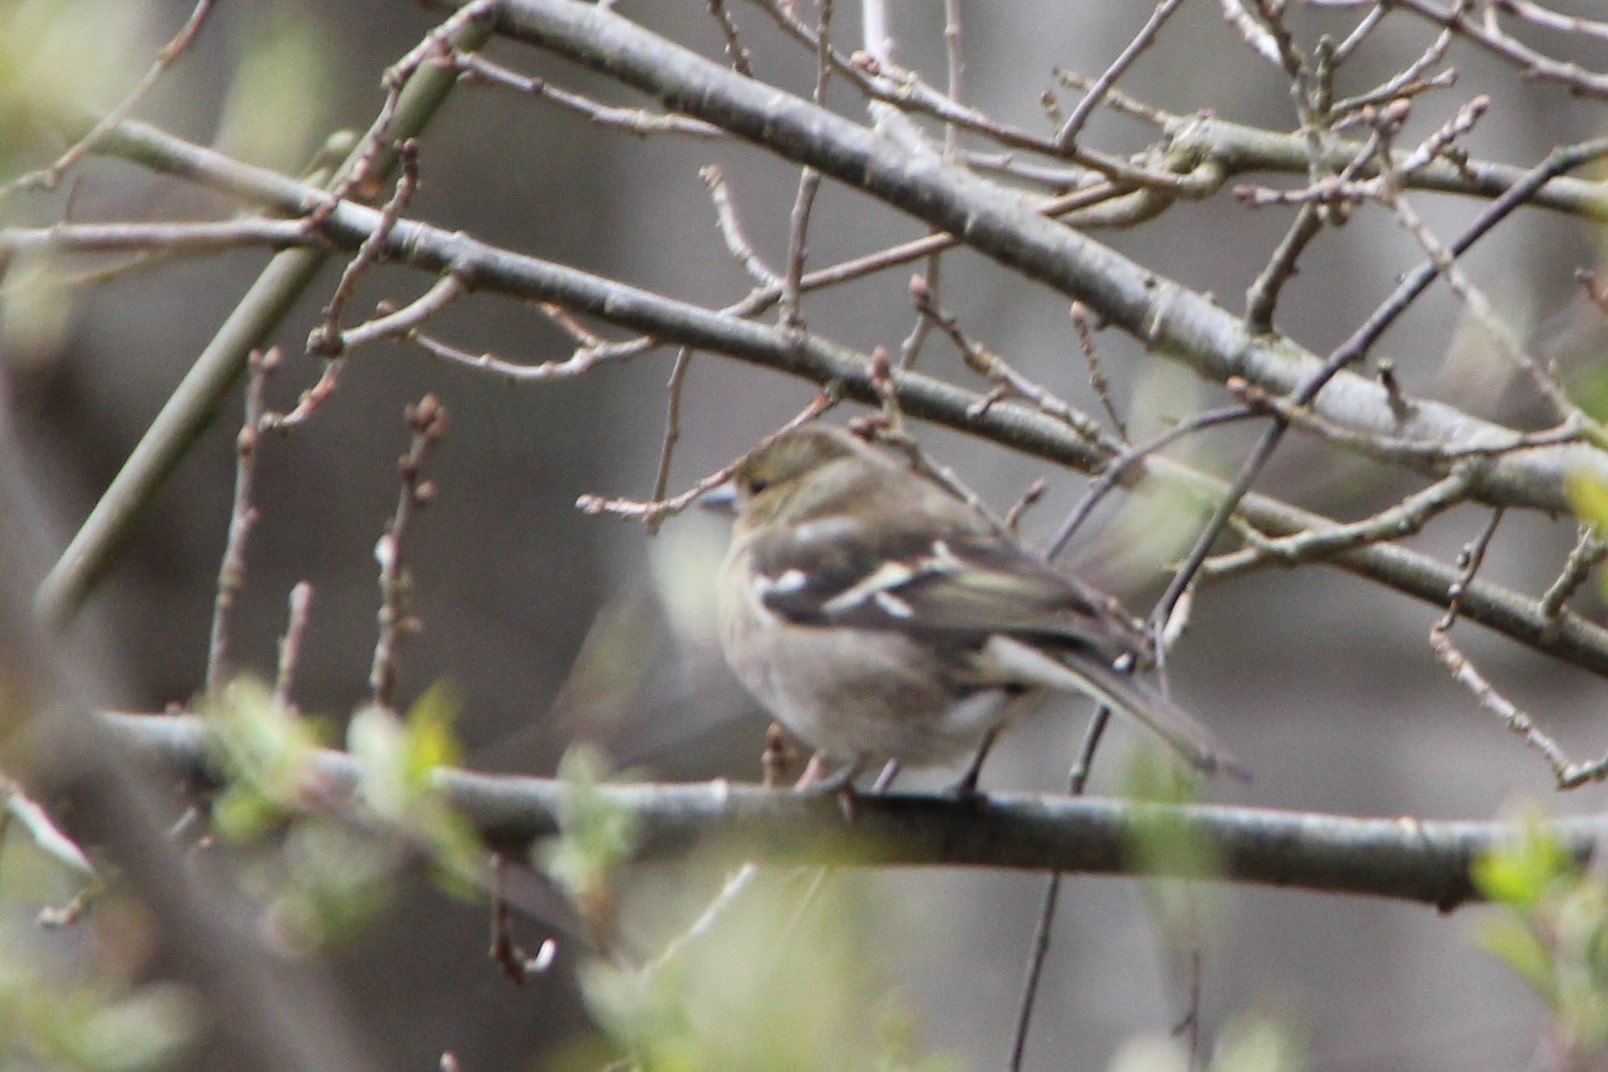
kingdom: Animalia
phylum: Chordata
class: Aves
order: Passeriformes
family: Fringillidae
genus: Fringilla
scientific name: Fringilla coelebs
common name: Common chaffinch
